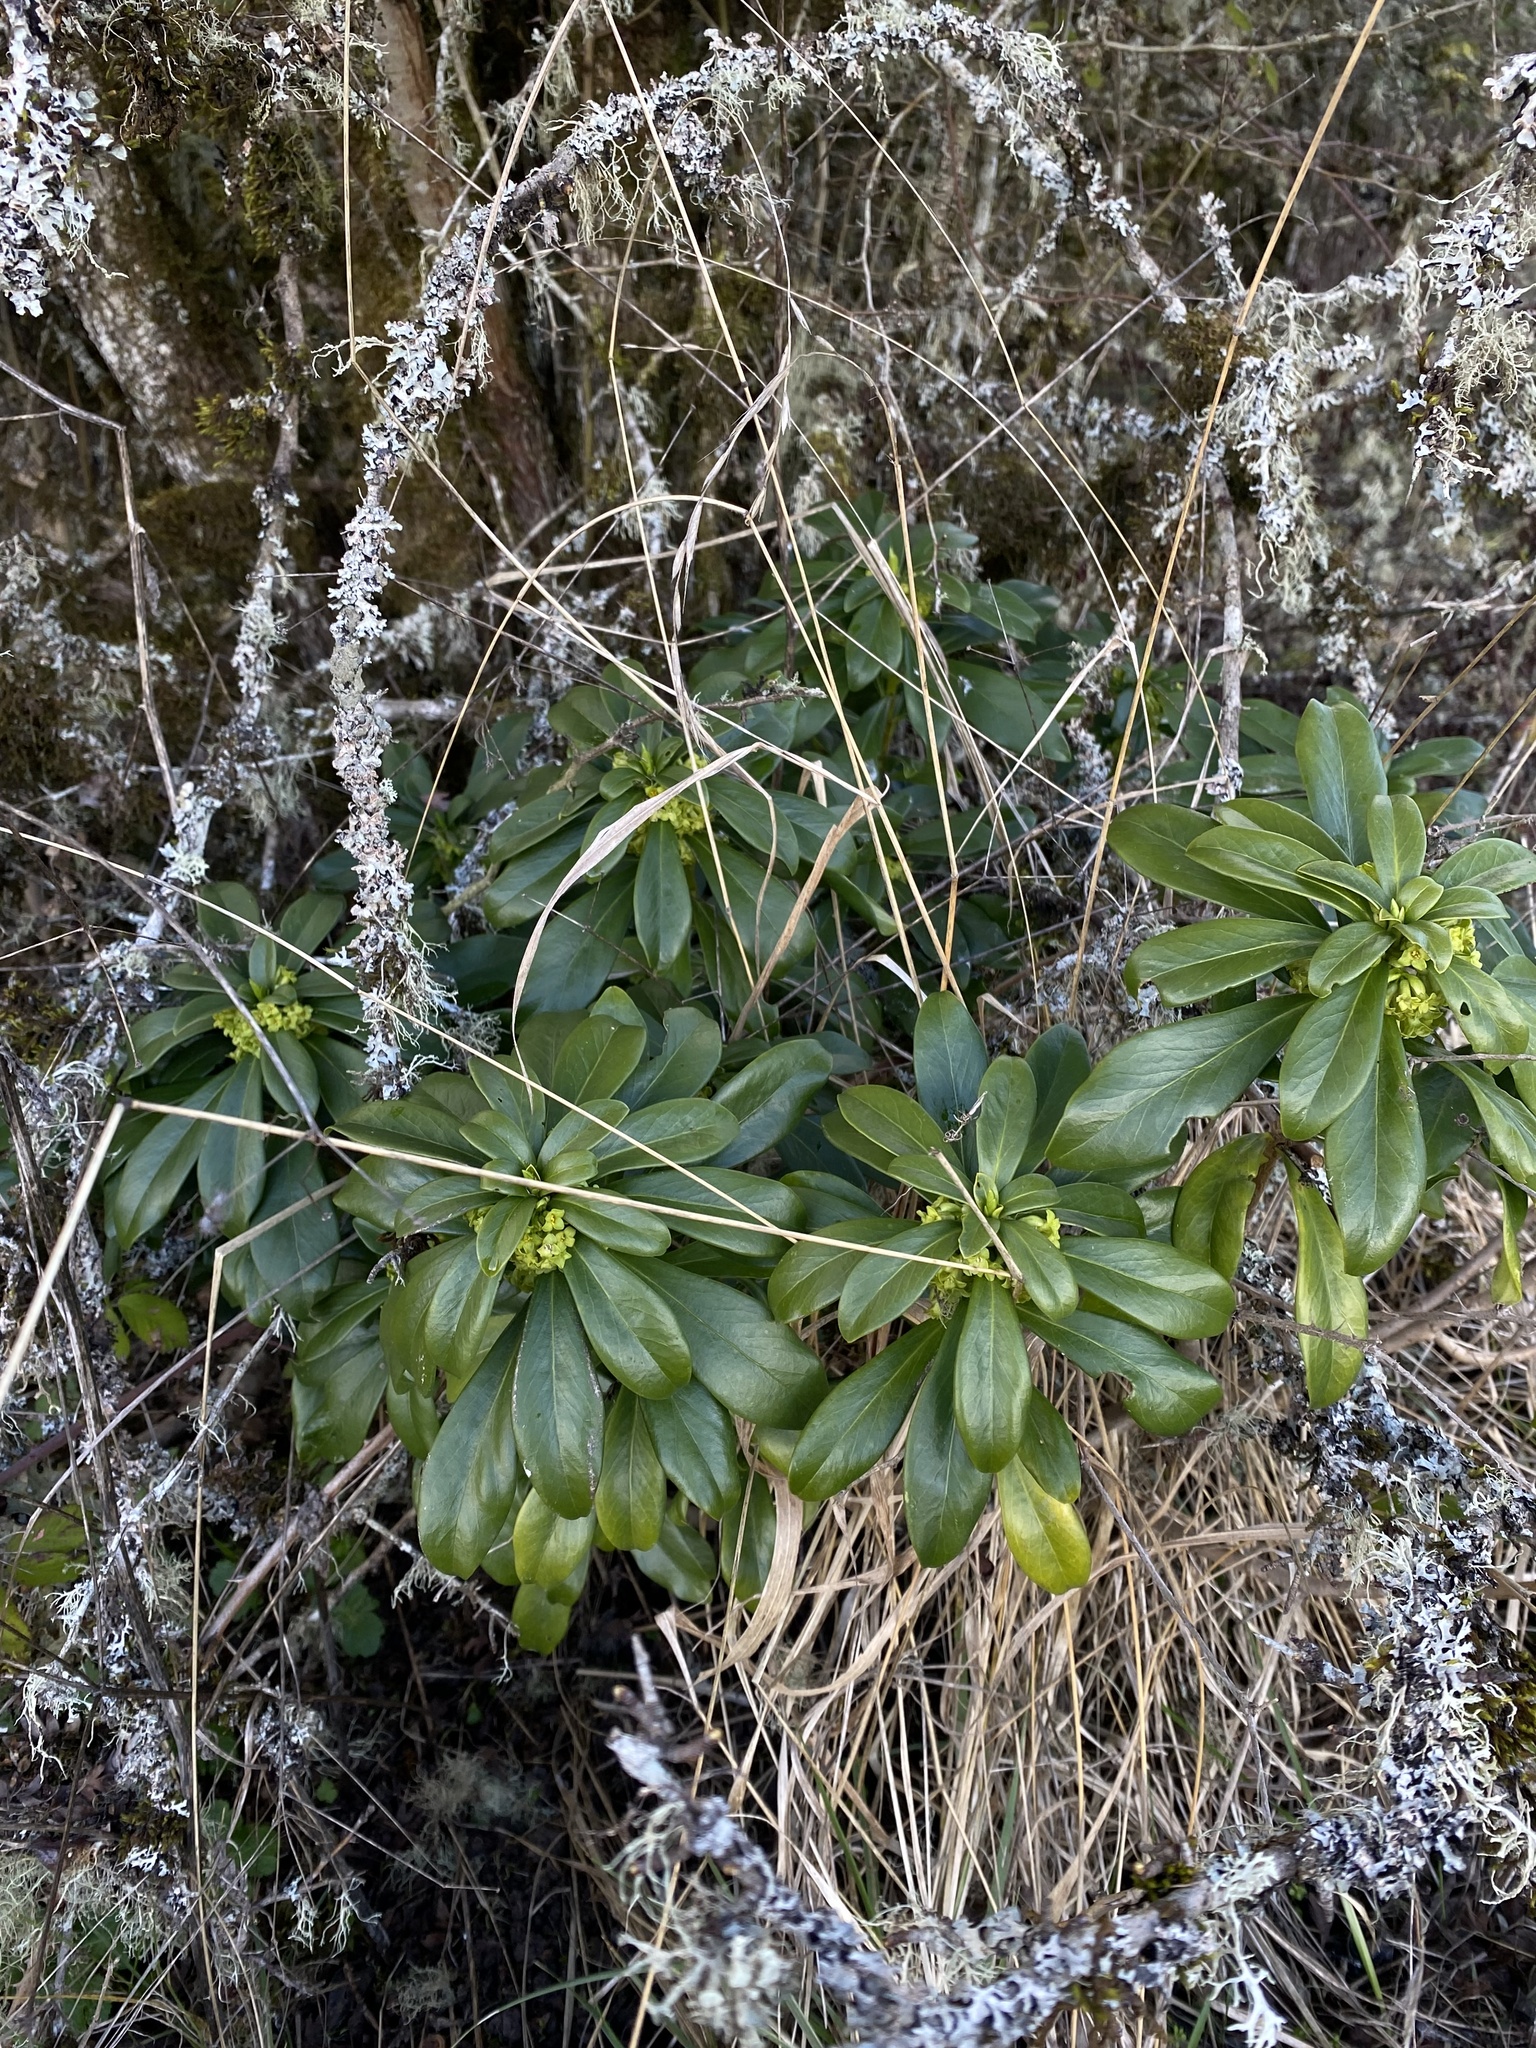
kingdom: Plantae
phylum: Tracheophyta
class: Magnoliopsida
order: Malvales
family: Thymelaeaceae
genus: Daphne
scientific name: Daphne laureola
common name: Spurge-laurel
